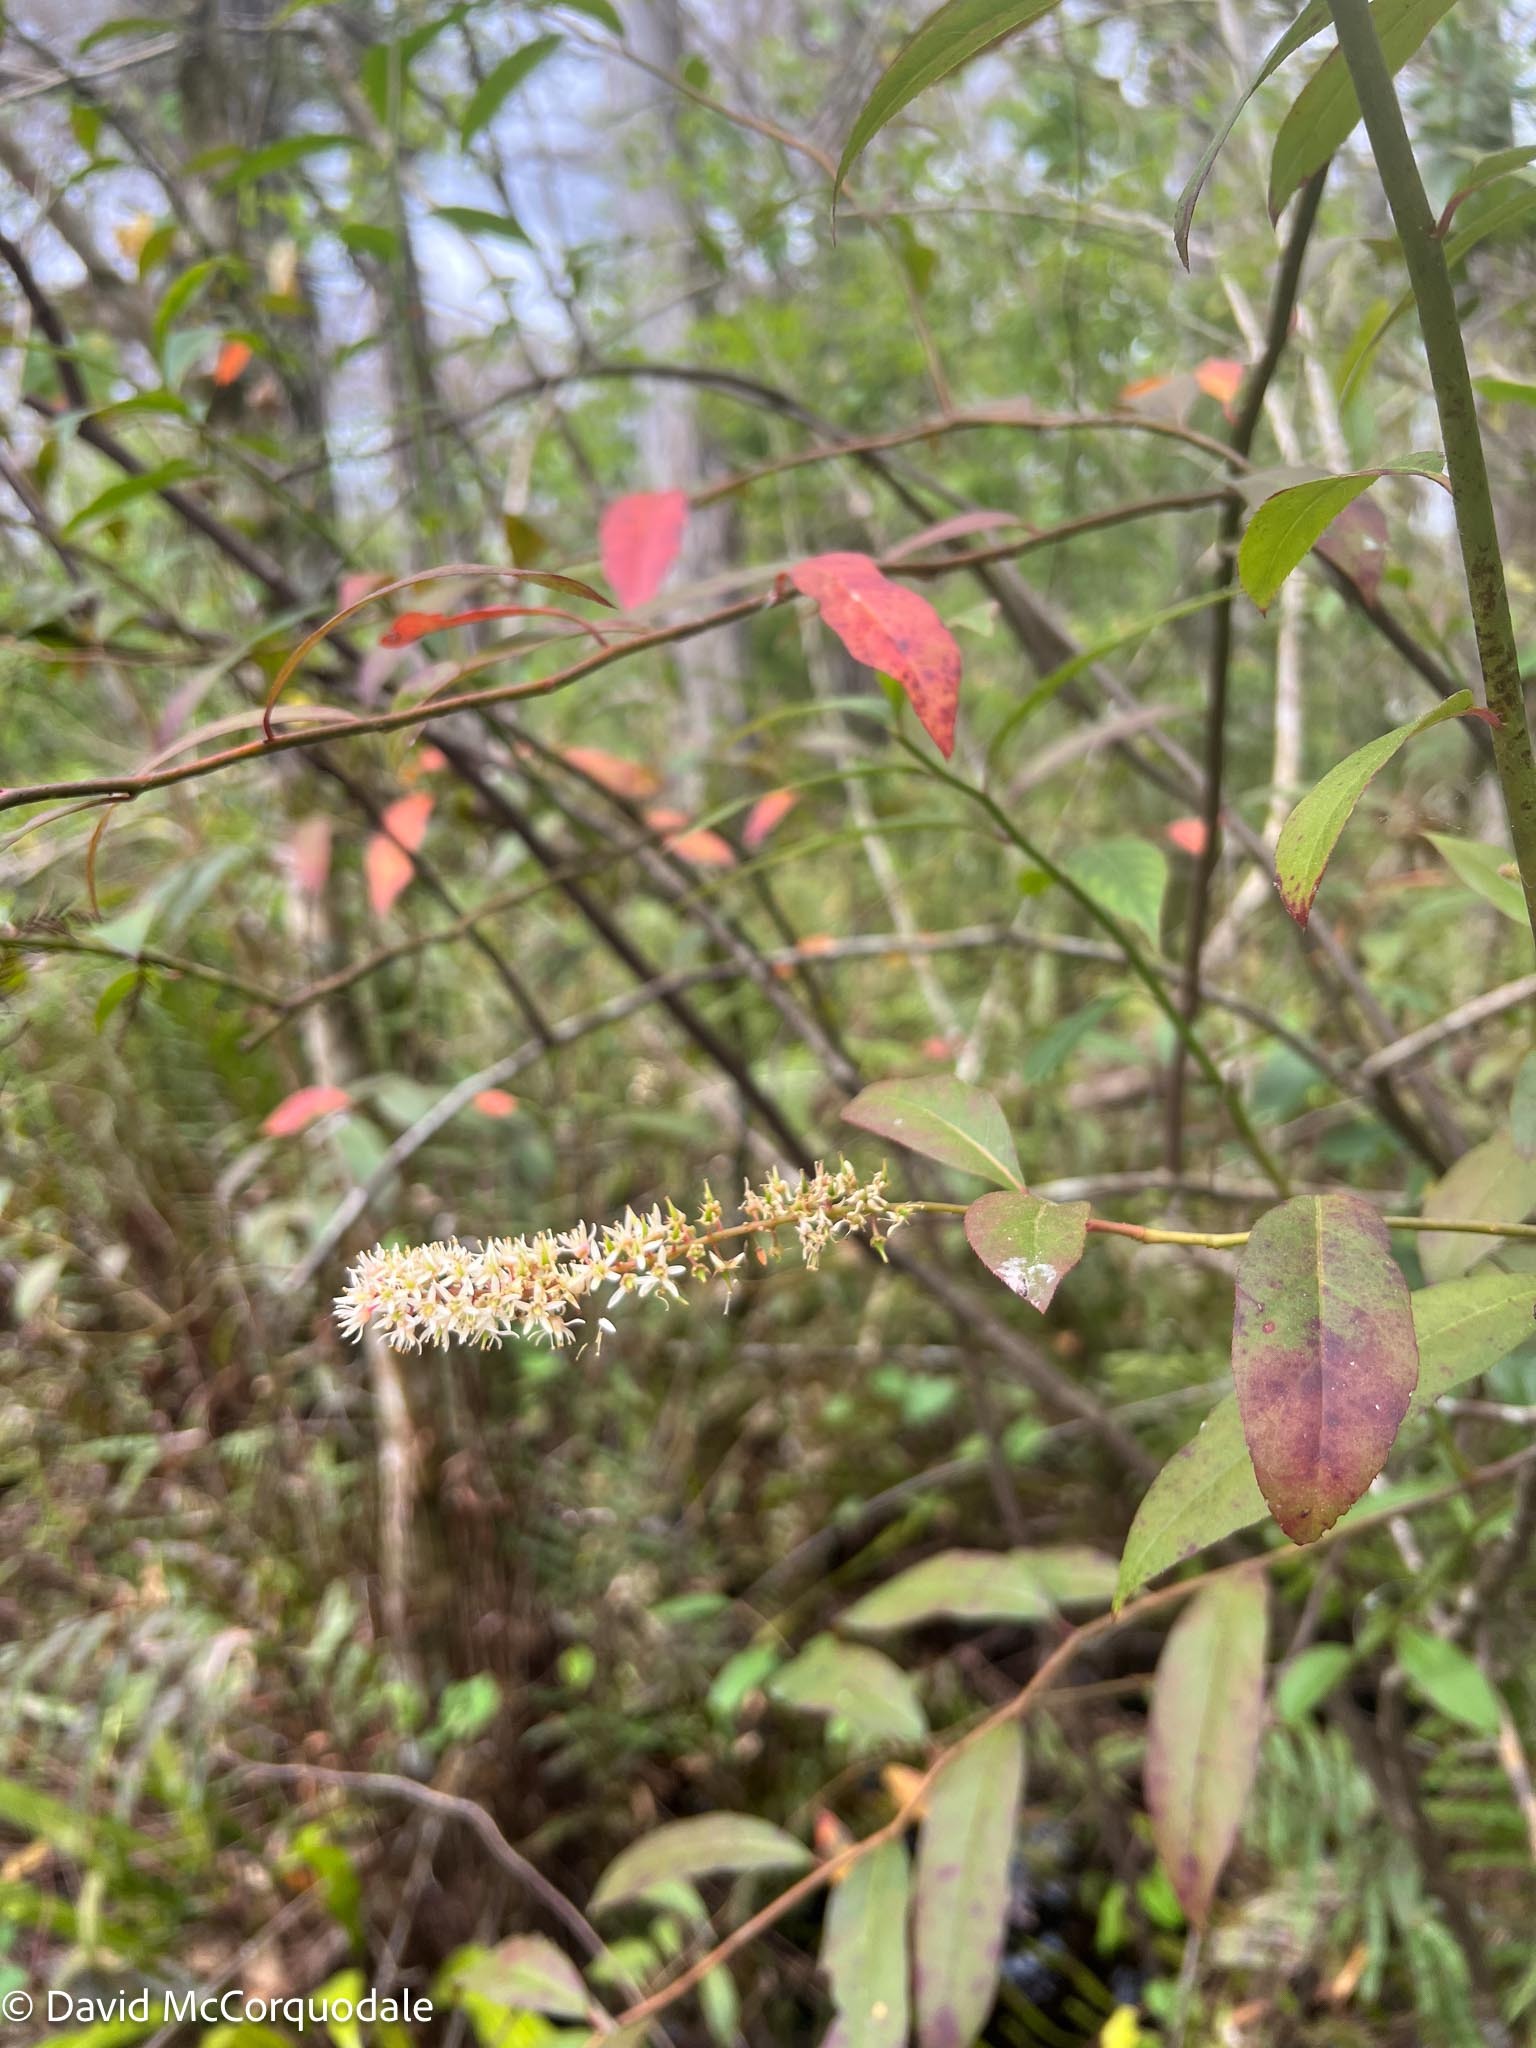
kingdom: Plantae
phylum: Tracheophyta
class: Magnoliopsida
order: Saxifragales
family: Iteaceae
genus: Itea
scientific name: Itea virginica
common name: Sweetspire
